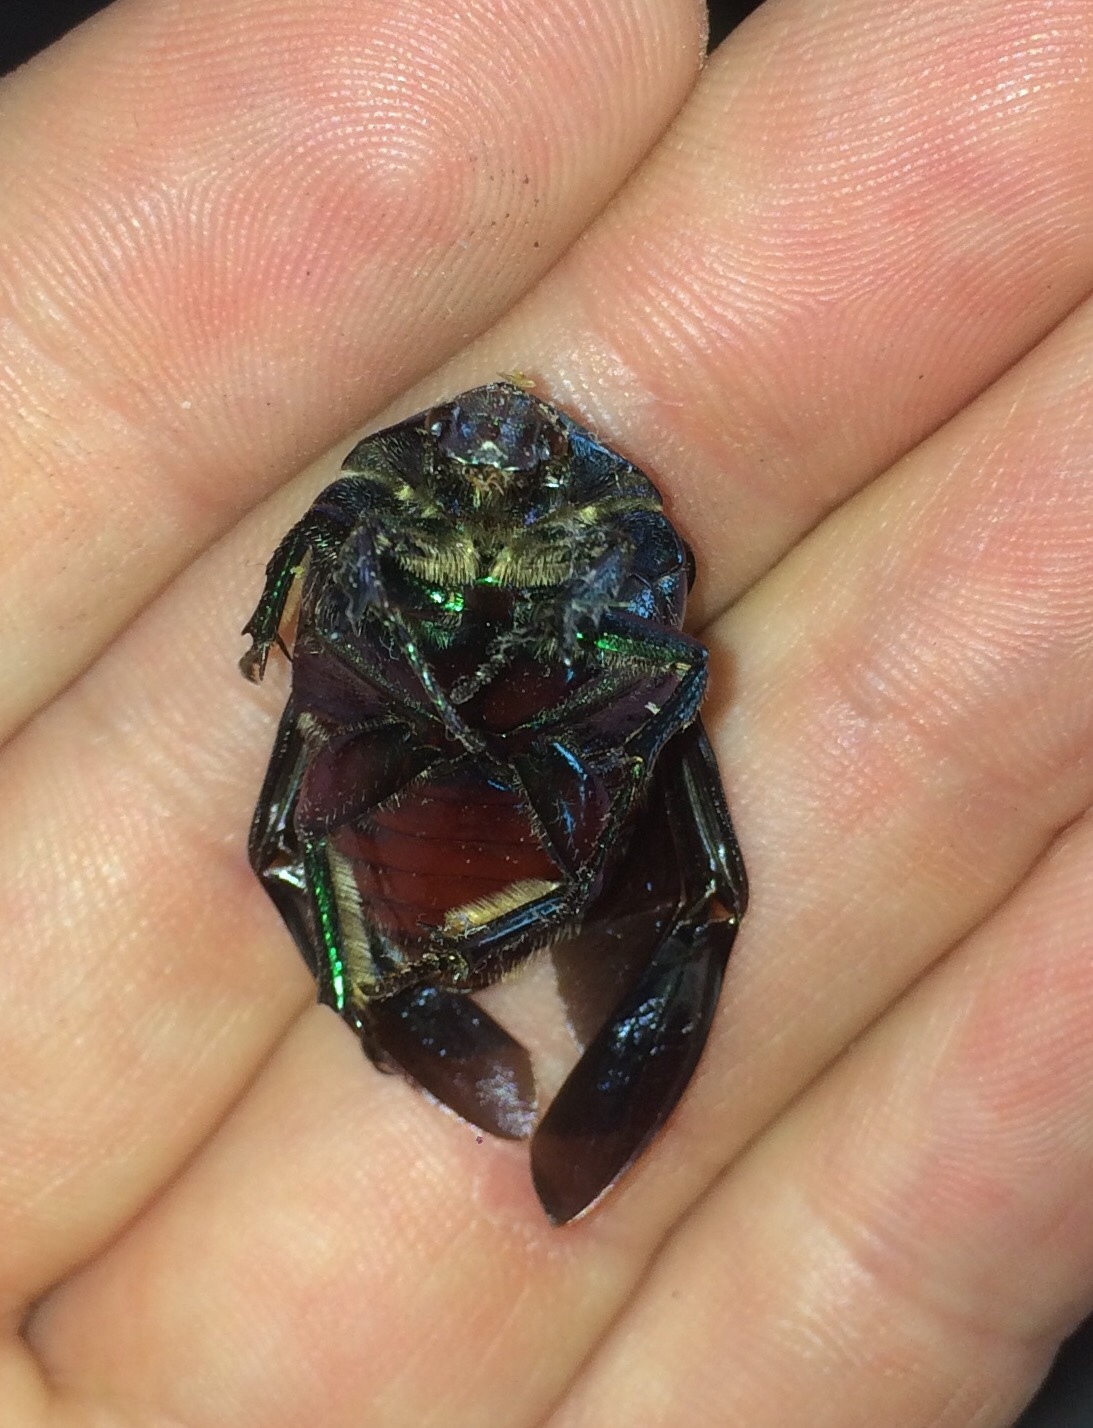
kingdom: Animalia
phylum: Arthropoda
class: Insecta
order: Coleoptera
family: Scarabaeidae
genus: Cotinis
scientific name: Cotinis mutabilis
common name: Figeater beetle
